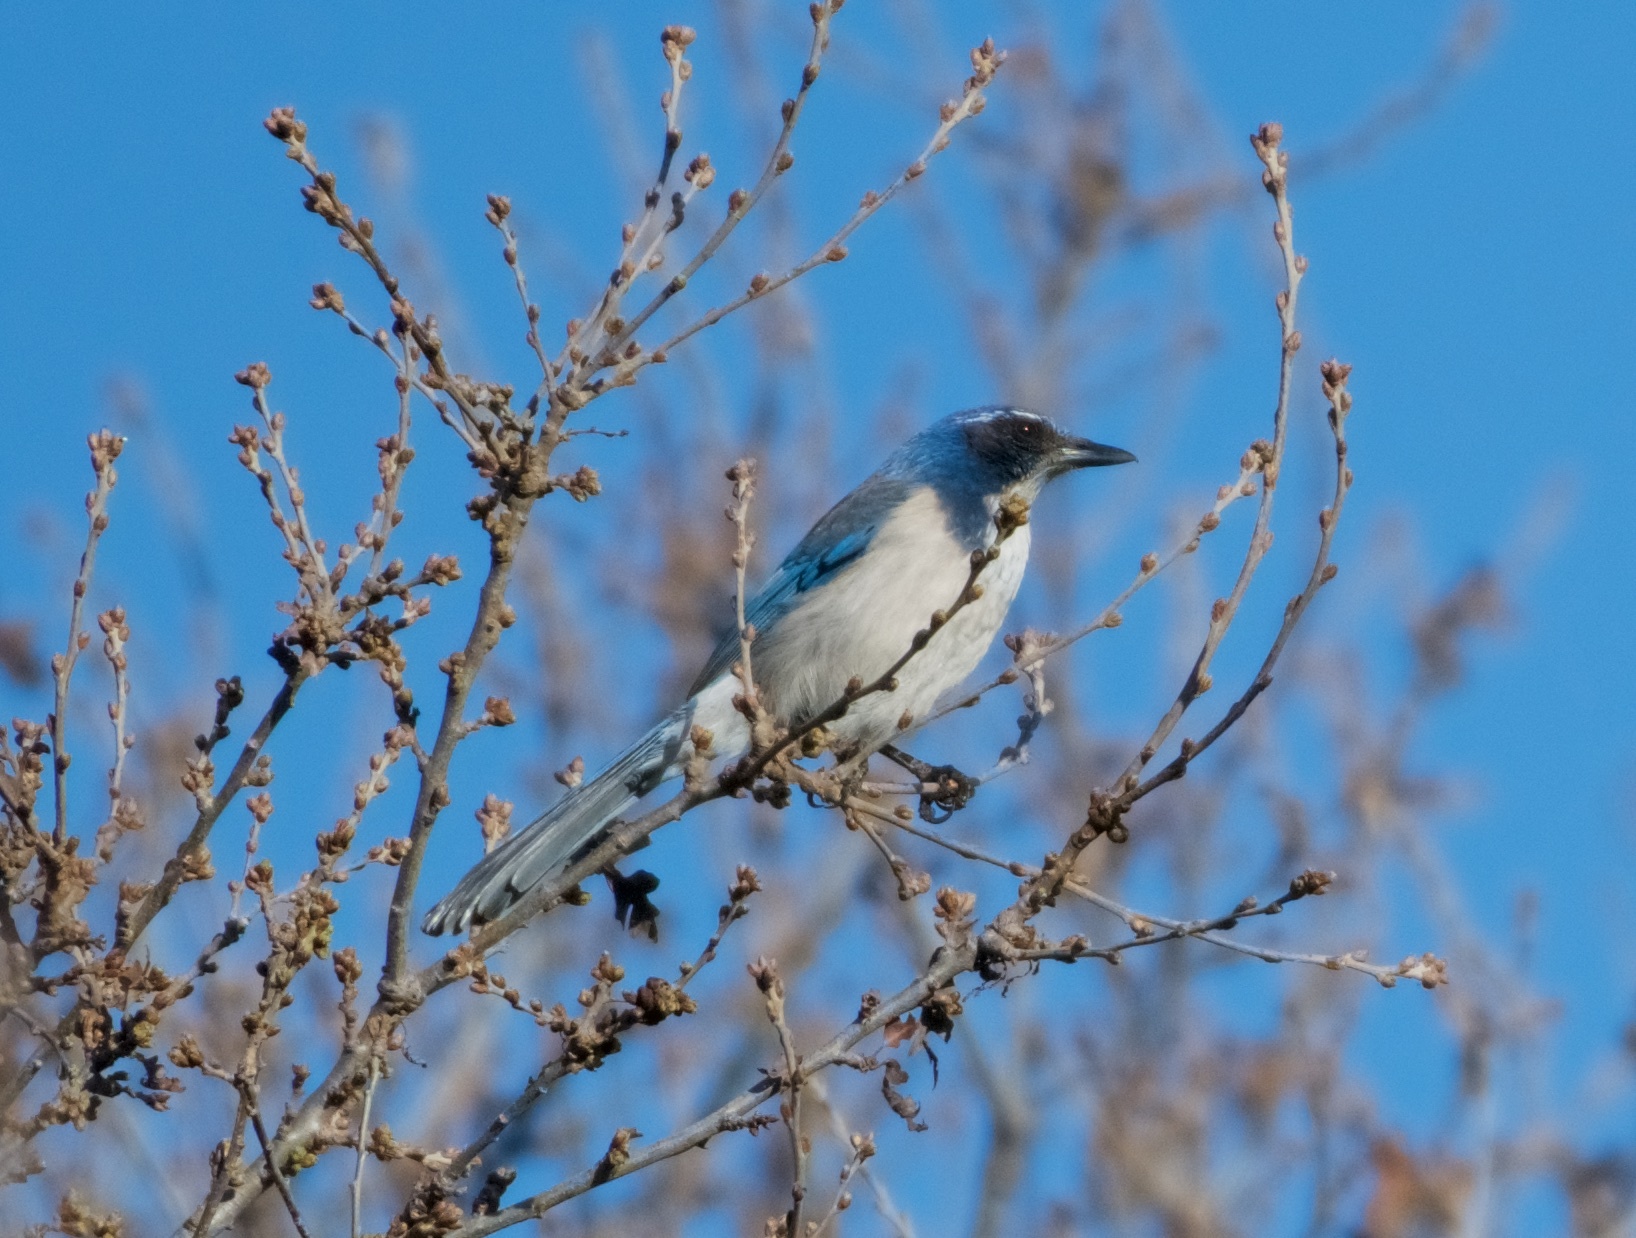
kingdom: Animalia
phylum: Chordata
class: Aves
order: Passeriformes
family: Corvidae
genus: Aphelocoma
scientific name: Aphelocoma californica
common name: California scrub-jay
